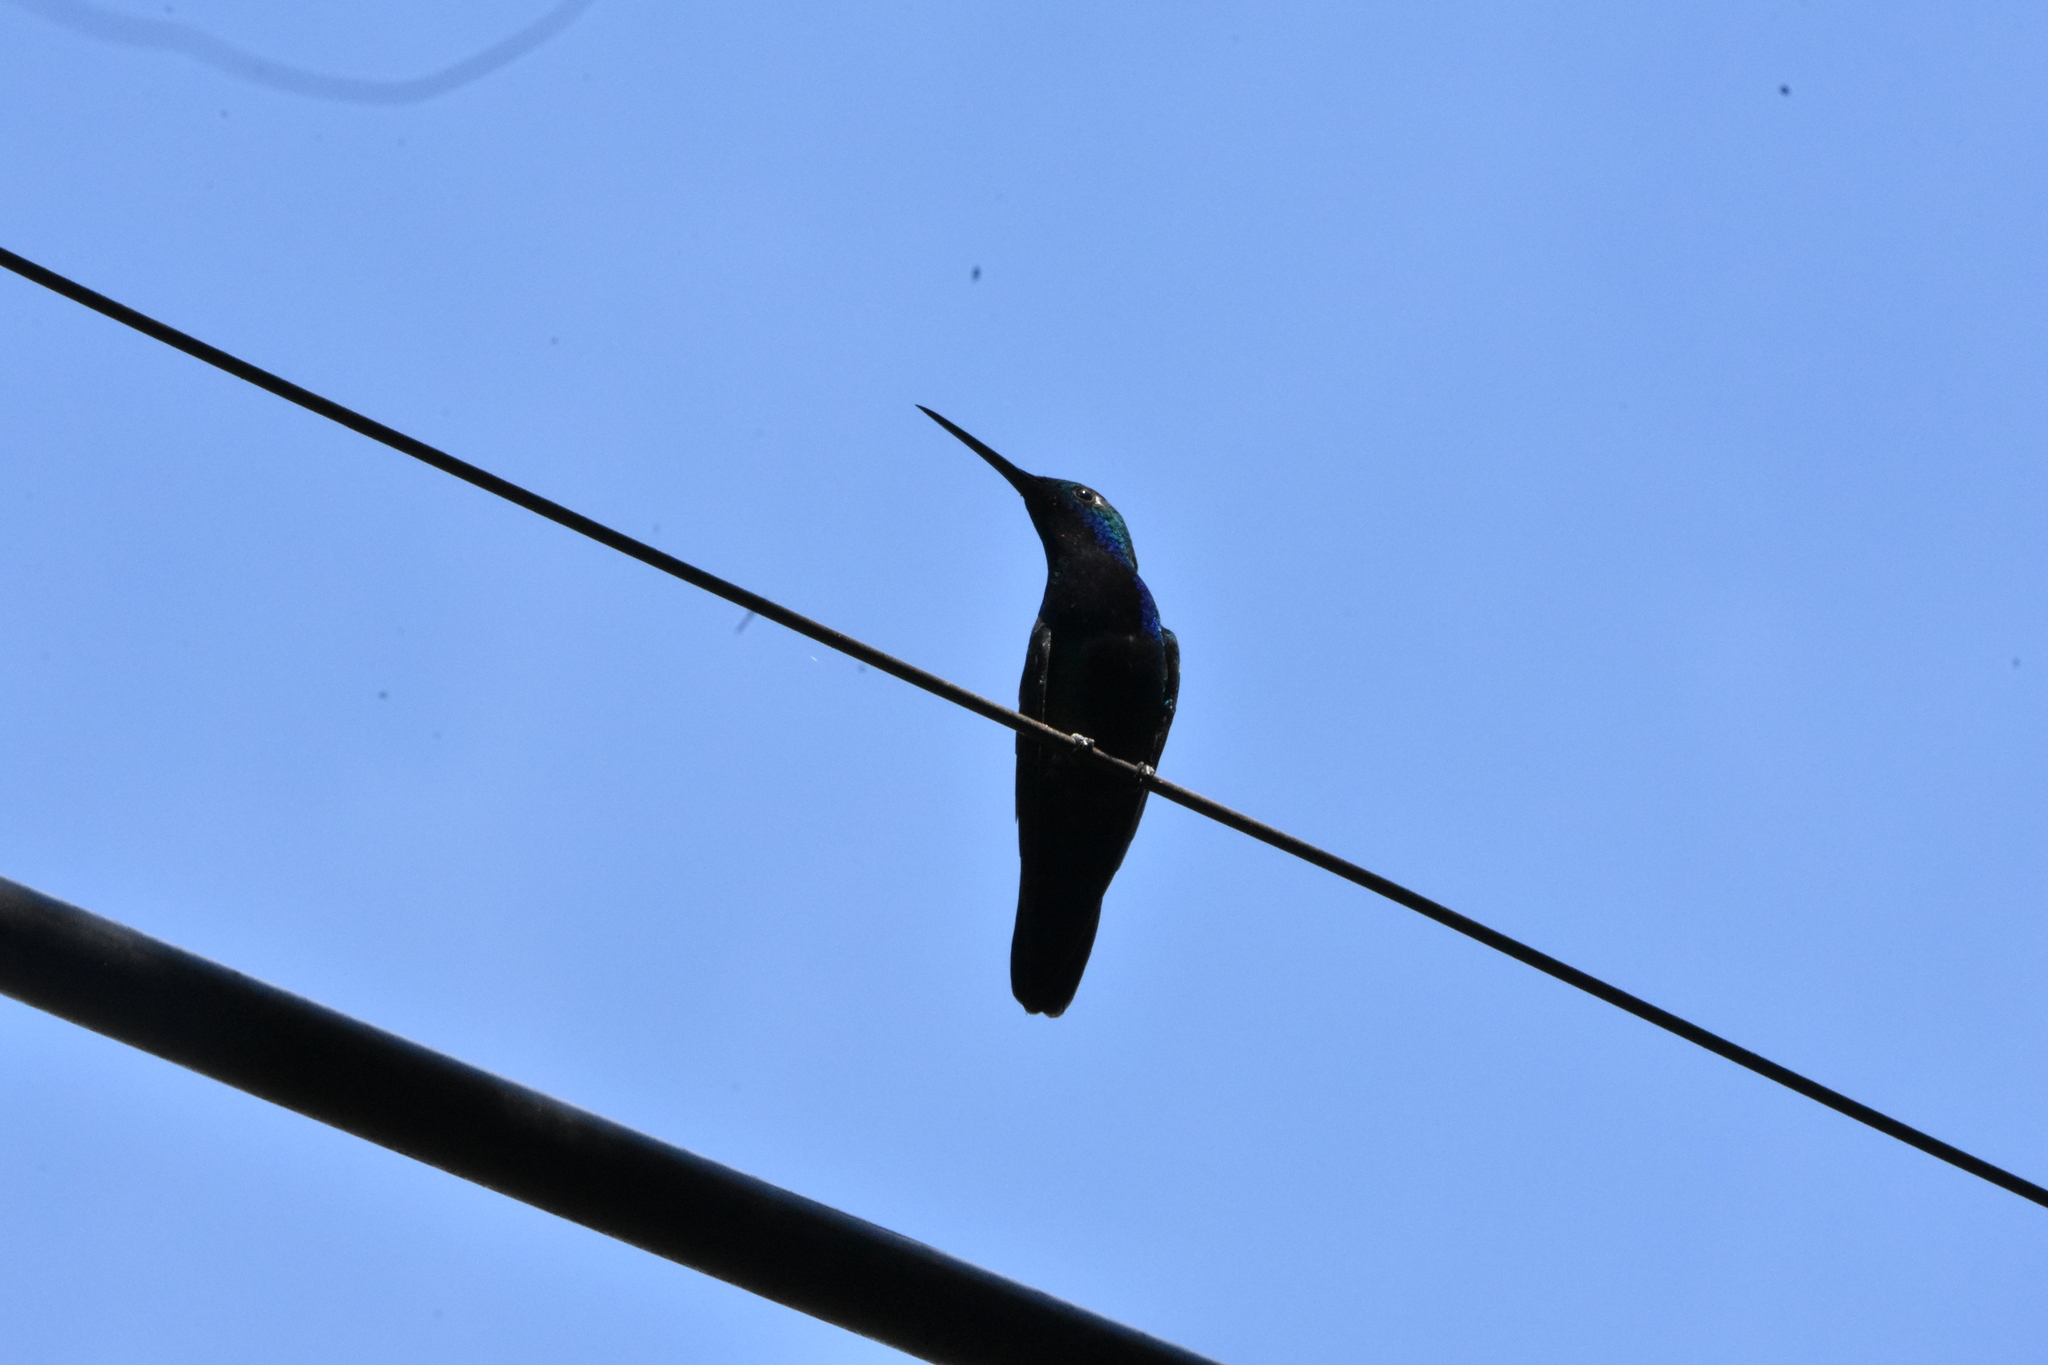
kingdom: Animalia
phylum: Chordata
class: Aves
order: Apodiformes
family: Trochilidae
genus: Anthracothorax
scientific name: Anthracothorax nigricollis
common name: Black-throated mango
